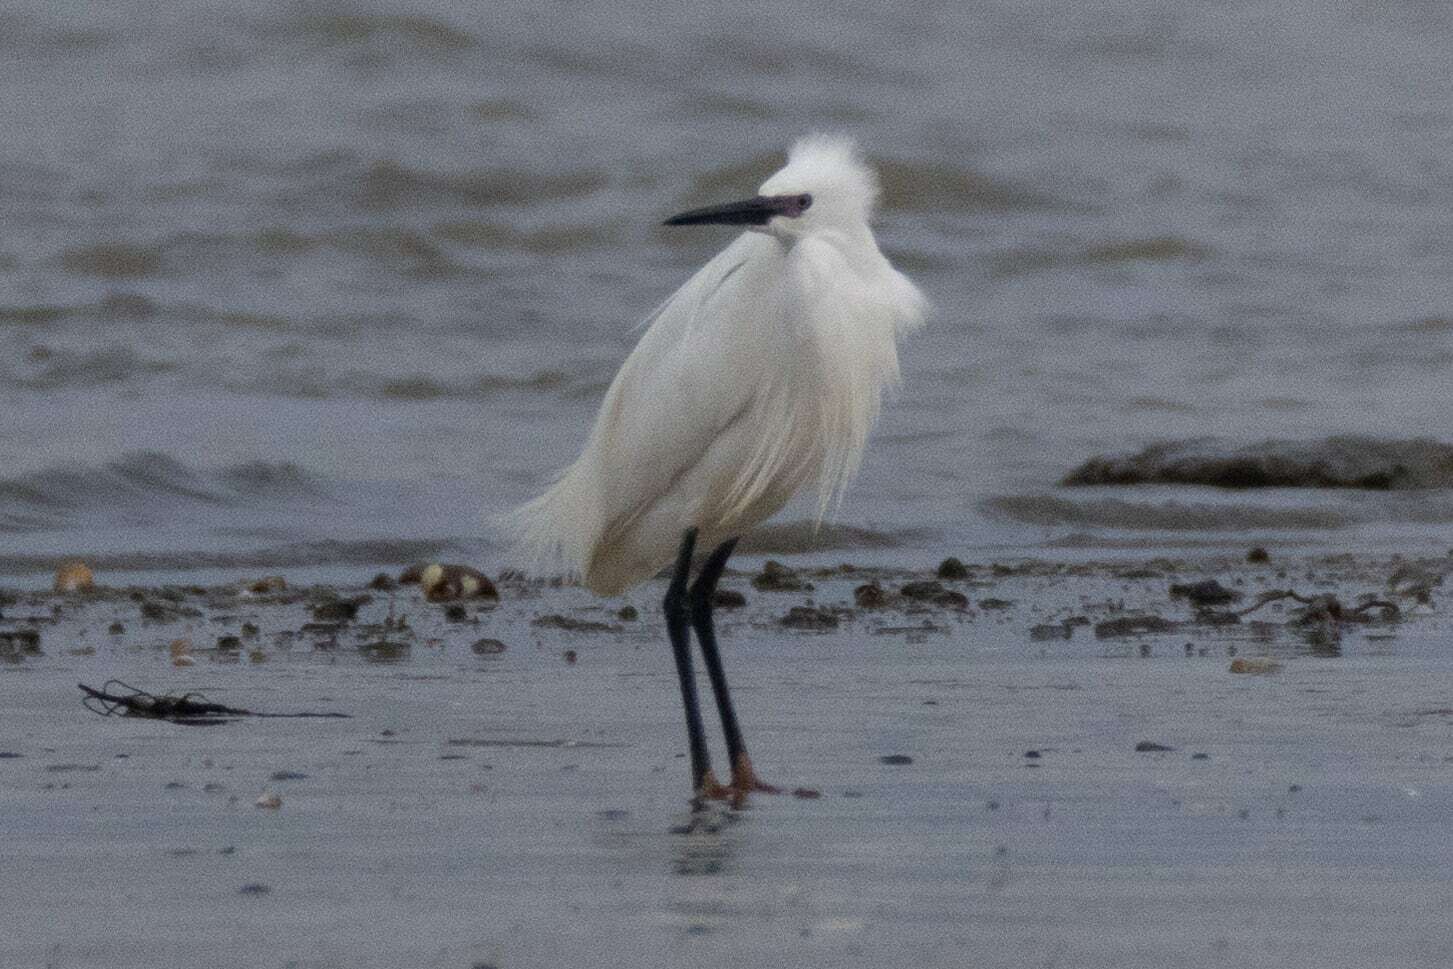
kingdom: Animalia
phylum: Chordata
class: Aves
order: Pelecaniformes
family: Ardeidae
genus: Egretta
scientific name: Egretta garzetta
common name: Little egret
